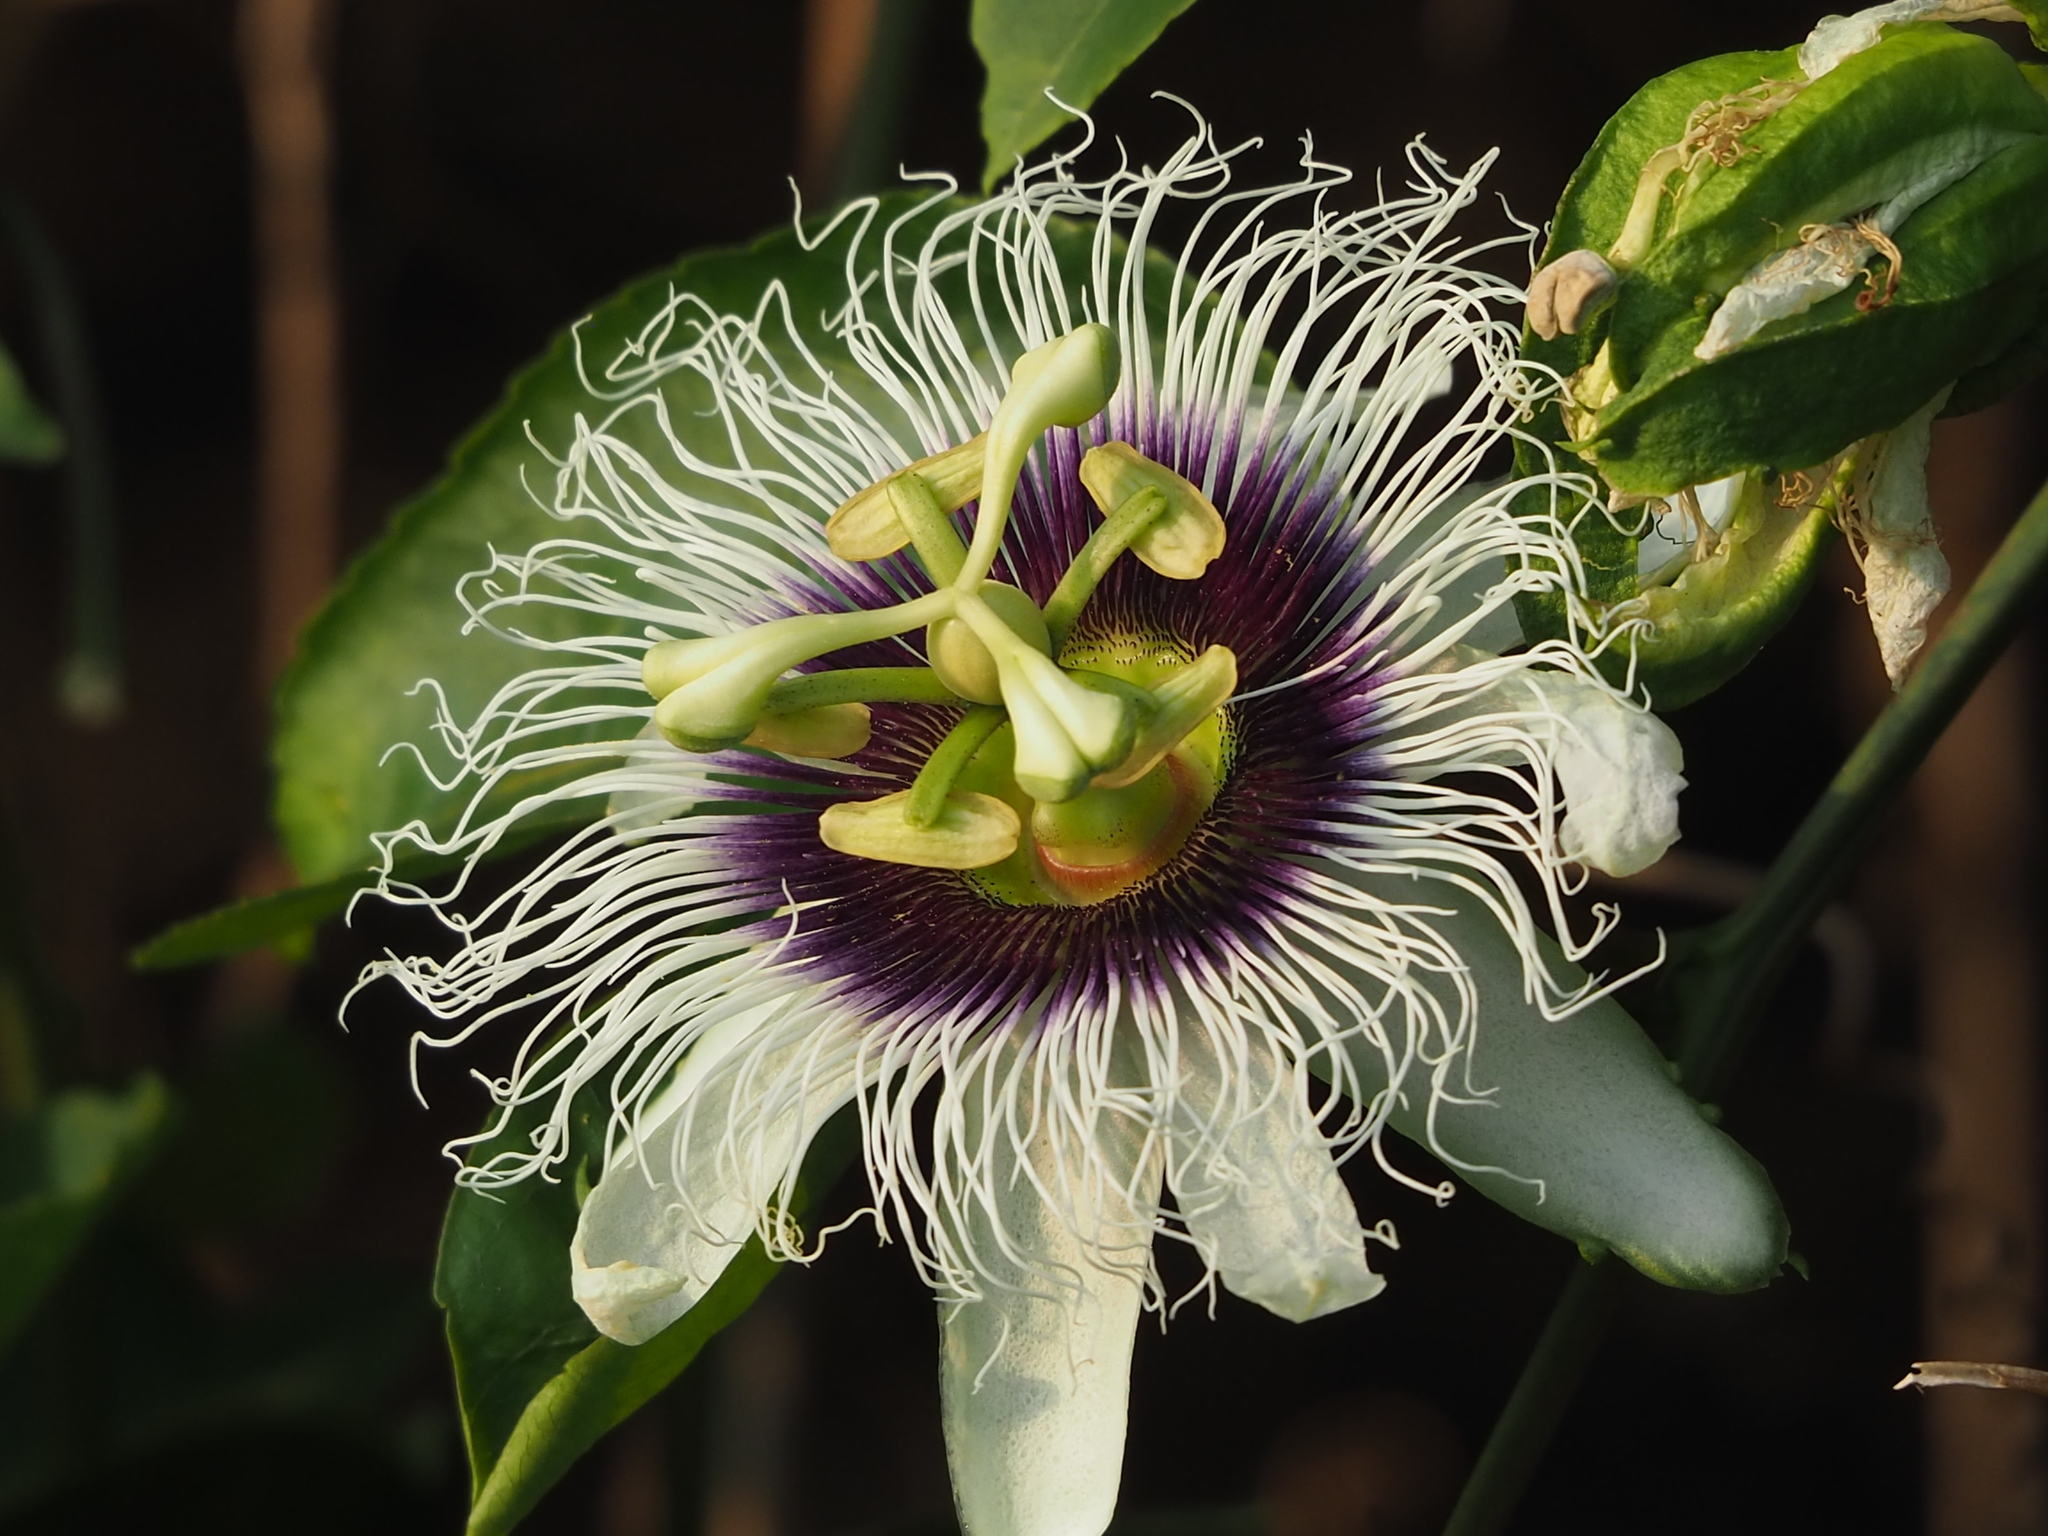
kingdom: Plantae
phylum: Tracheophyta
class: Magnoliopsida
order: Malpighiales
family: Passifloraceae
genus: Passiflora
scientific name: Passiflora edulis
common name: Purple granadilla
